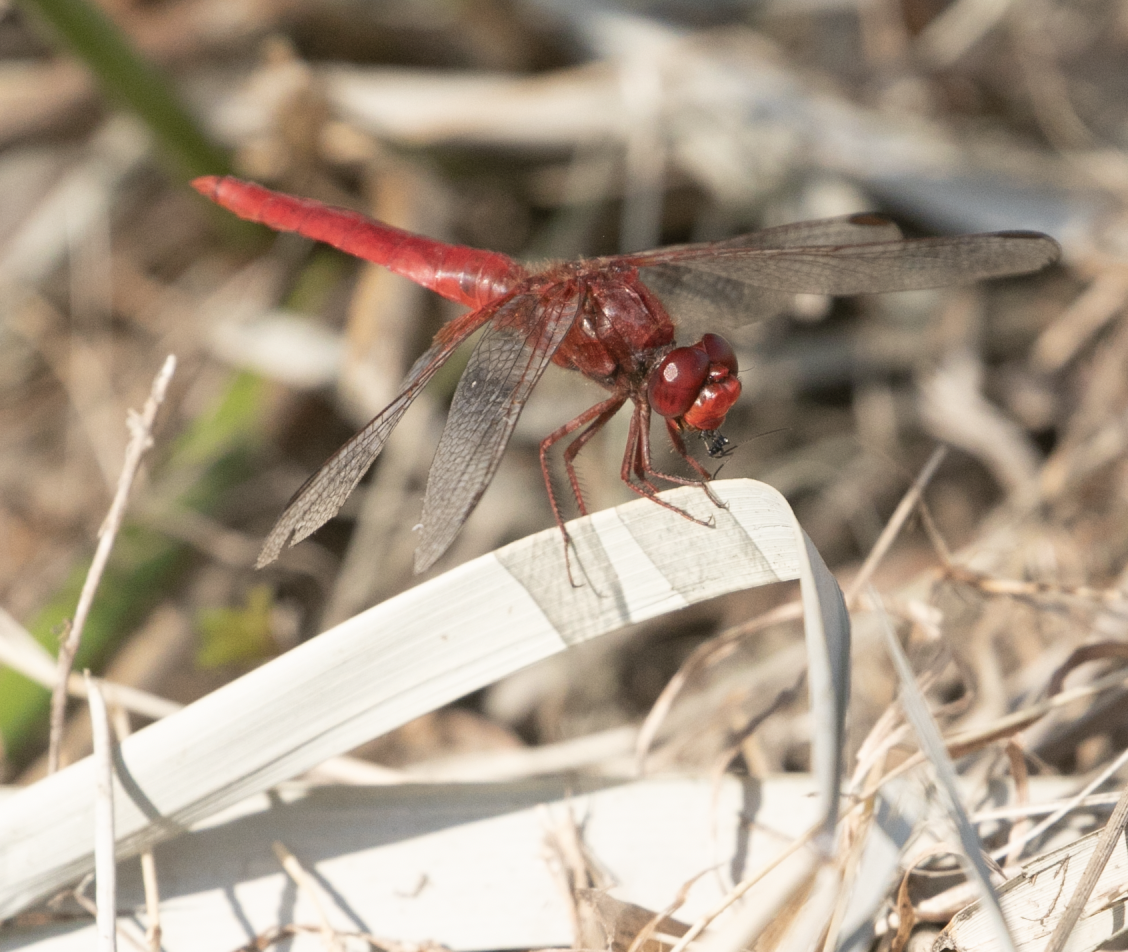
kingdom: Animalia
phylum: Arthropoda
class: Insecta
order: Odonata
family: Libellulidae
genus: Crocothemis
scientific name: Crocothemis erythraea
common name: Scarlet dragonfly
